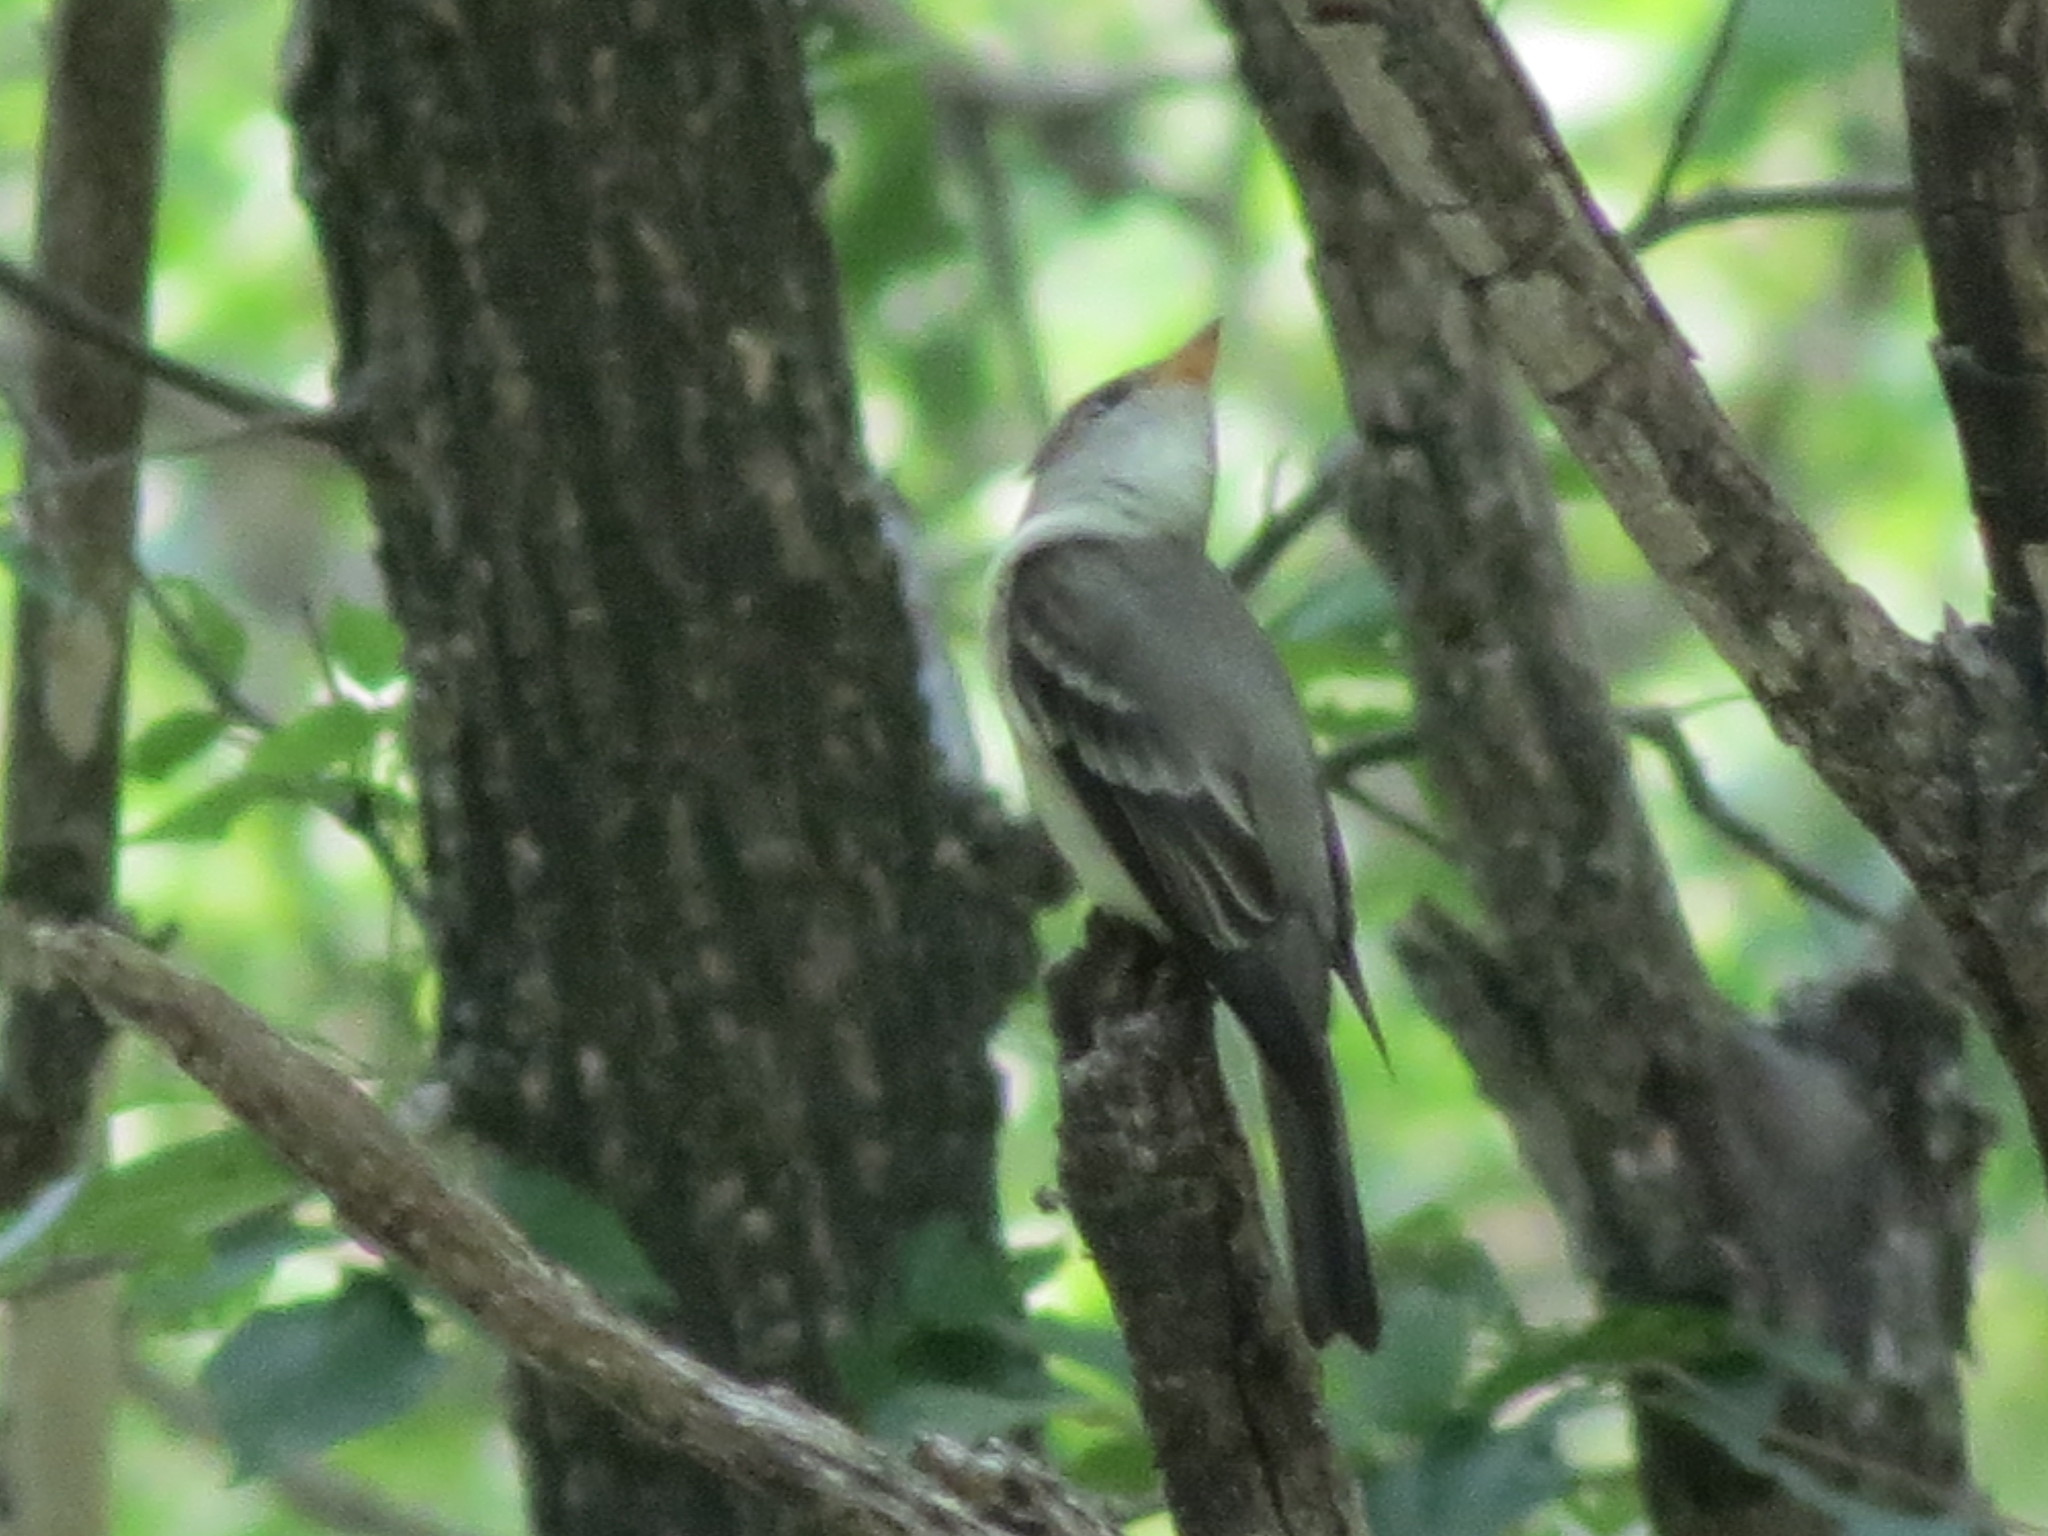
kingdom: Animalia
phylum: Chordata
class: Aves
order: Passeriformes
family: Tyrannidae
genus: Contopus
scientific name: Contopus virens
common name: Eastern wood-pewee
